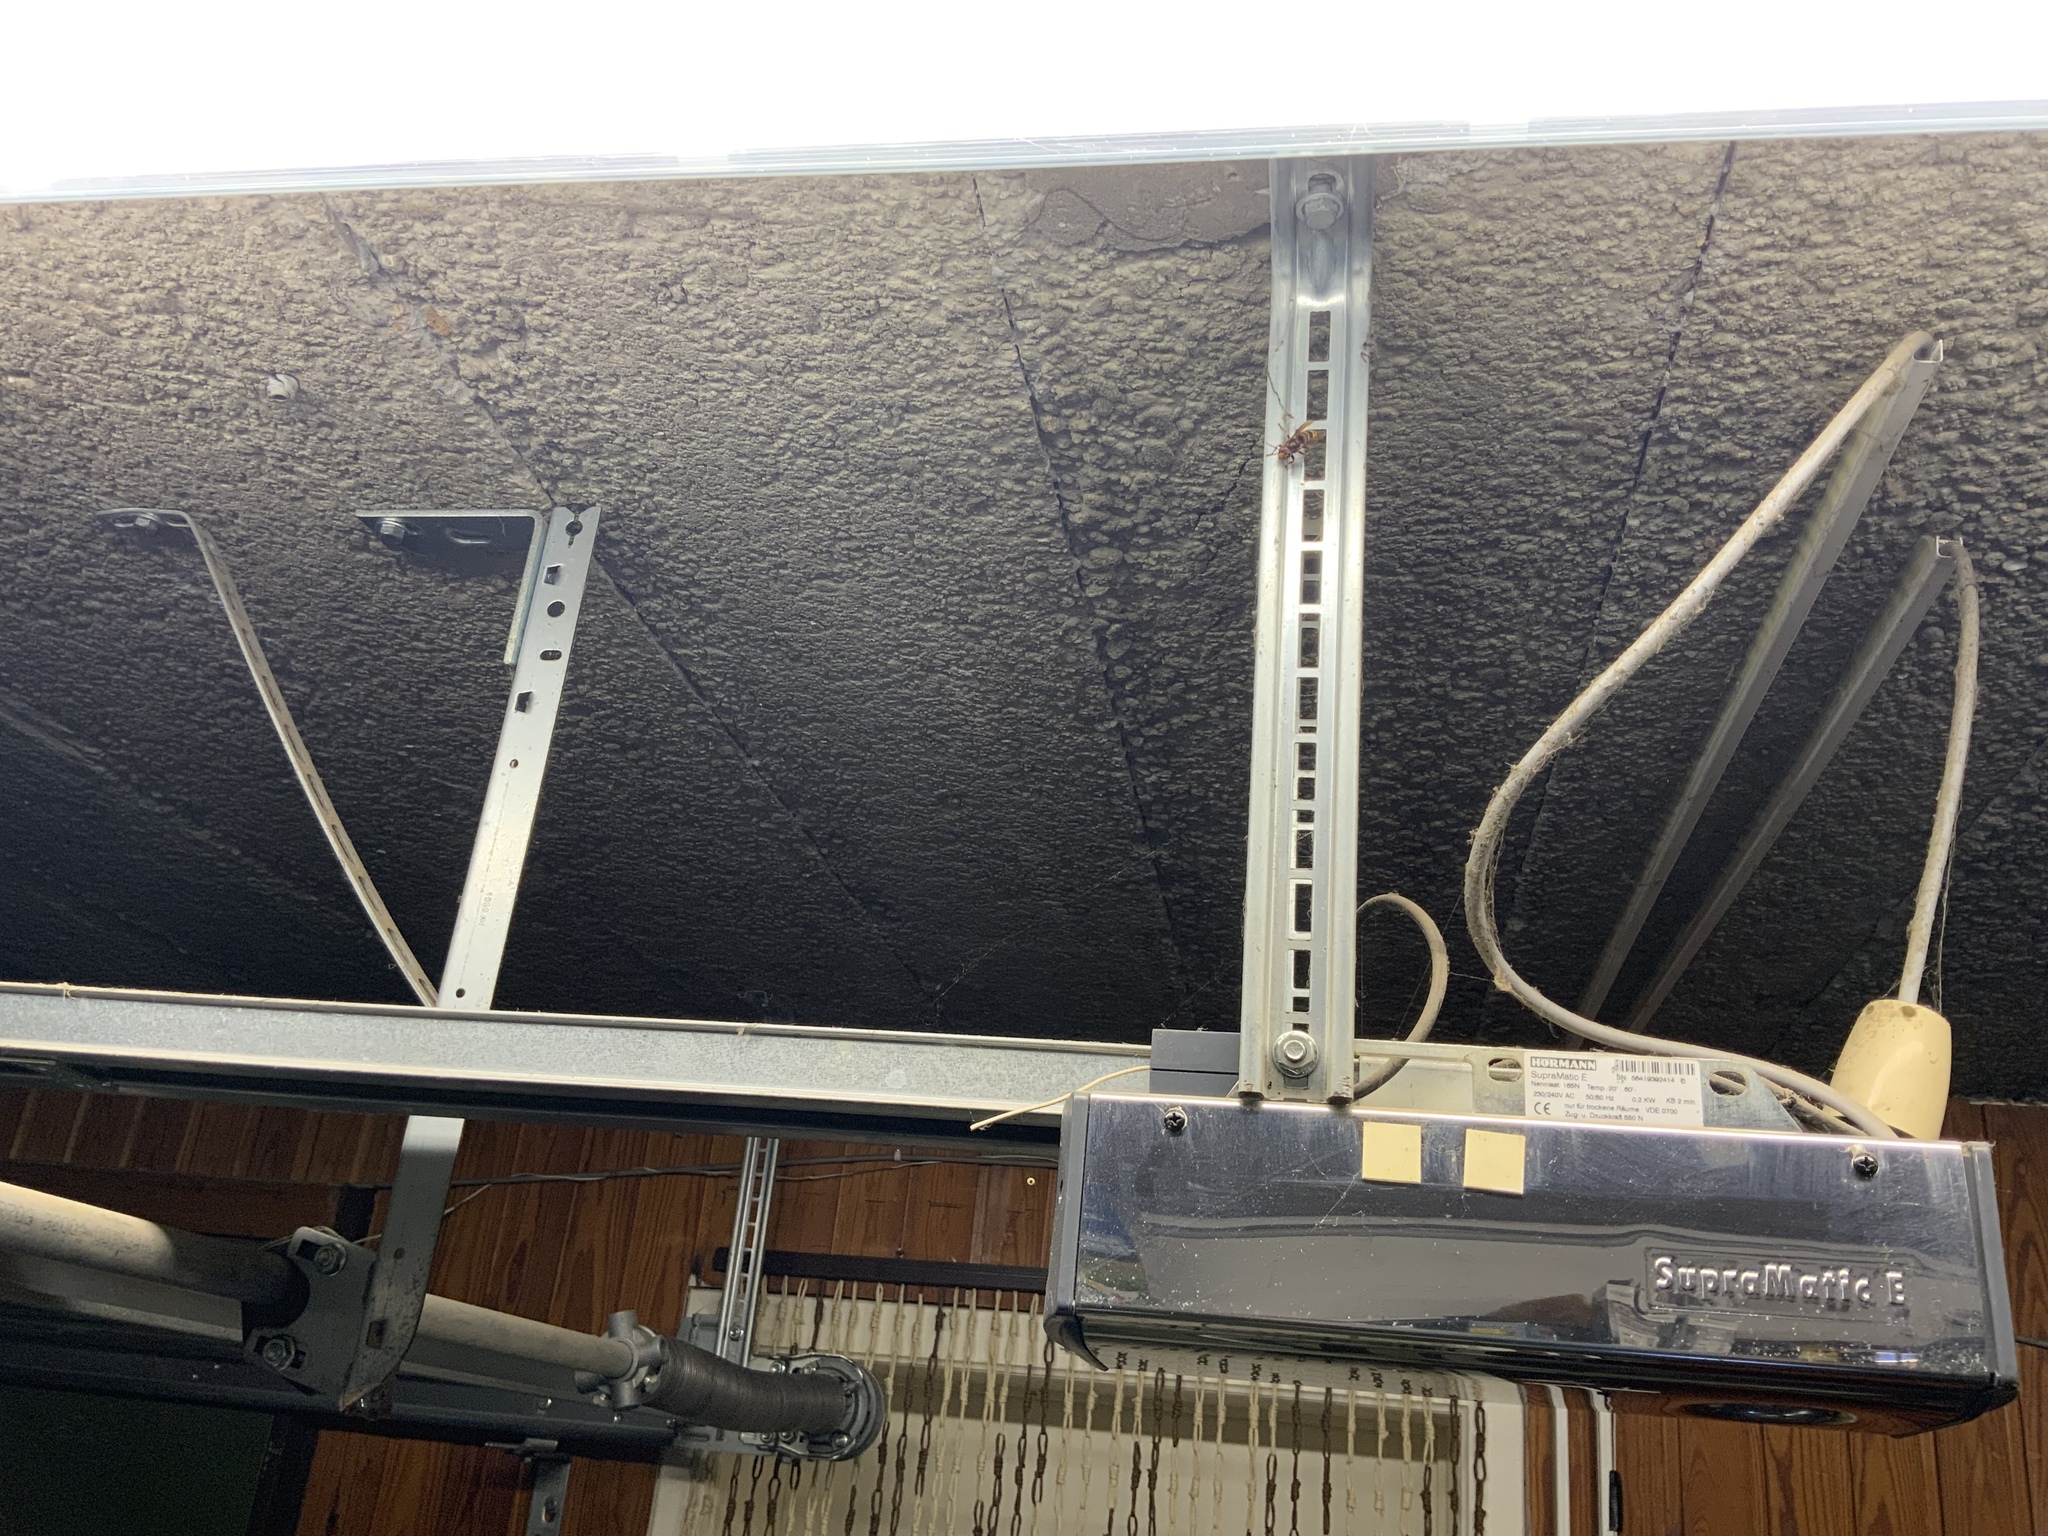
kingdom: Animalia
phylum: Arthropoda
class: Insecta
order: Hymenoptera
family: Vespidae
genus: Vespa
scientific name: Vespa crabro
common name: Hornet
